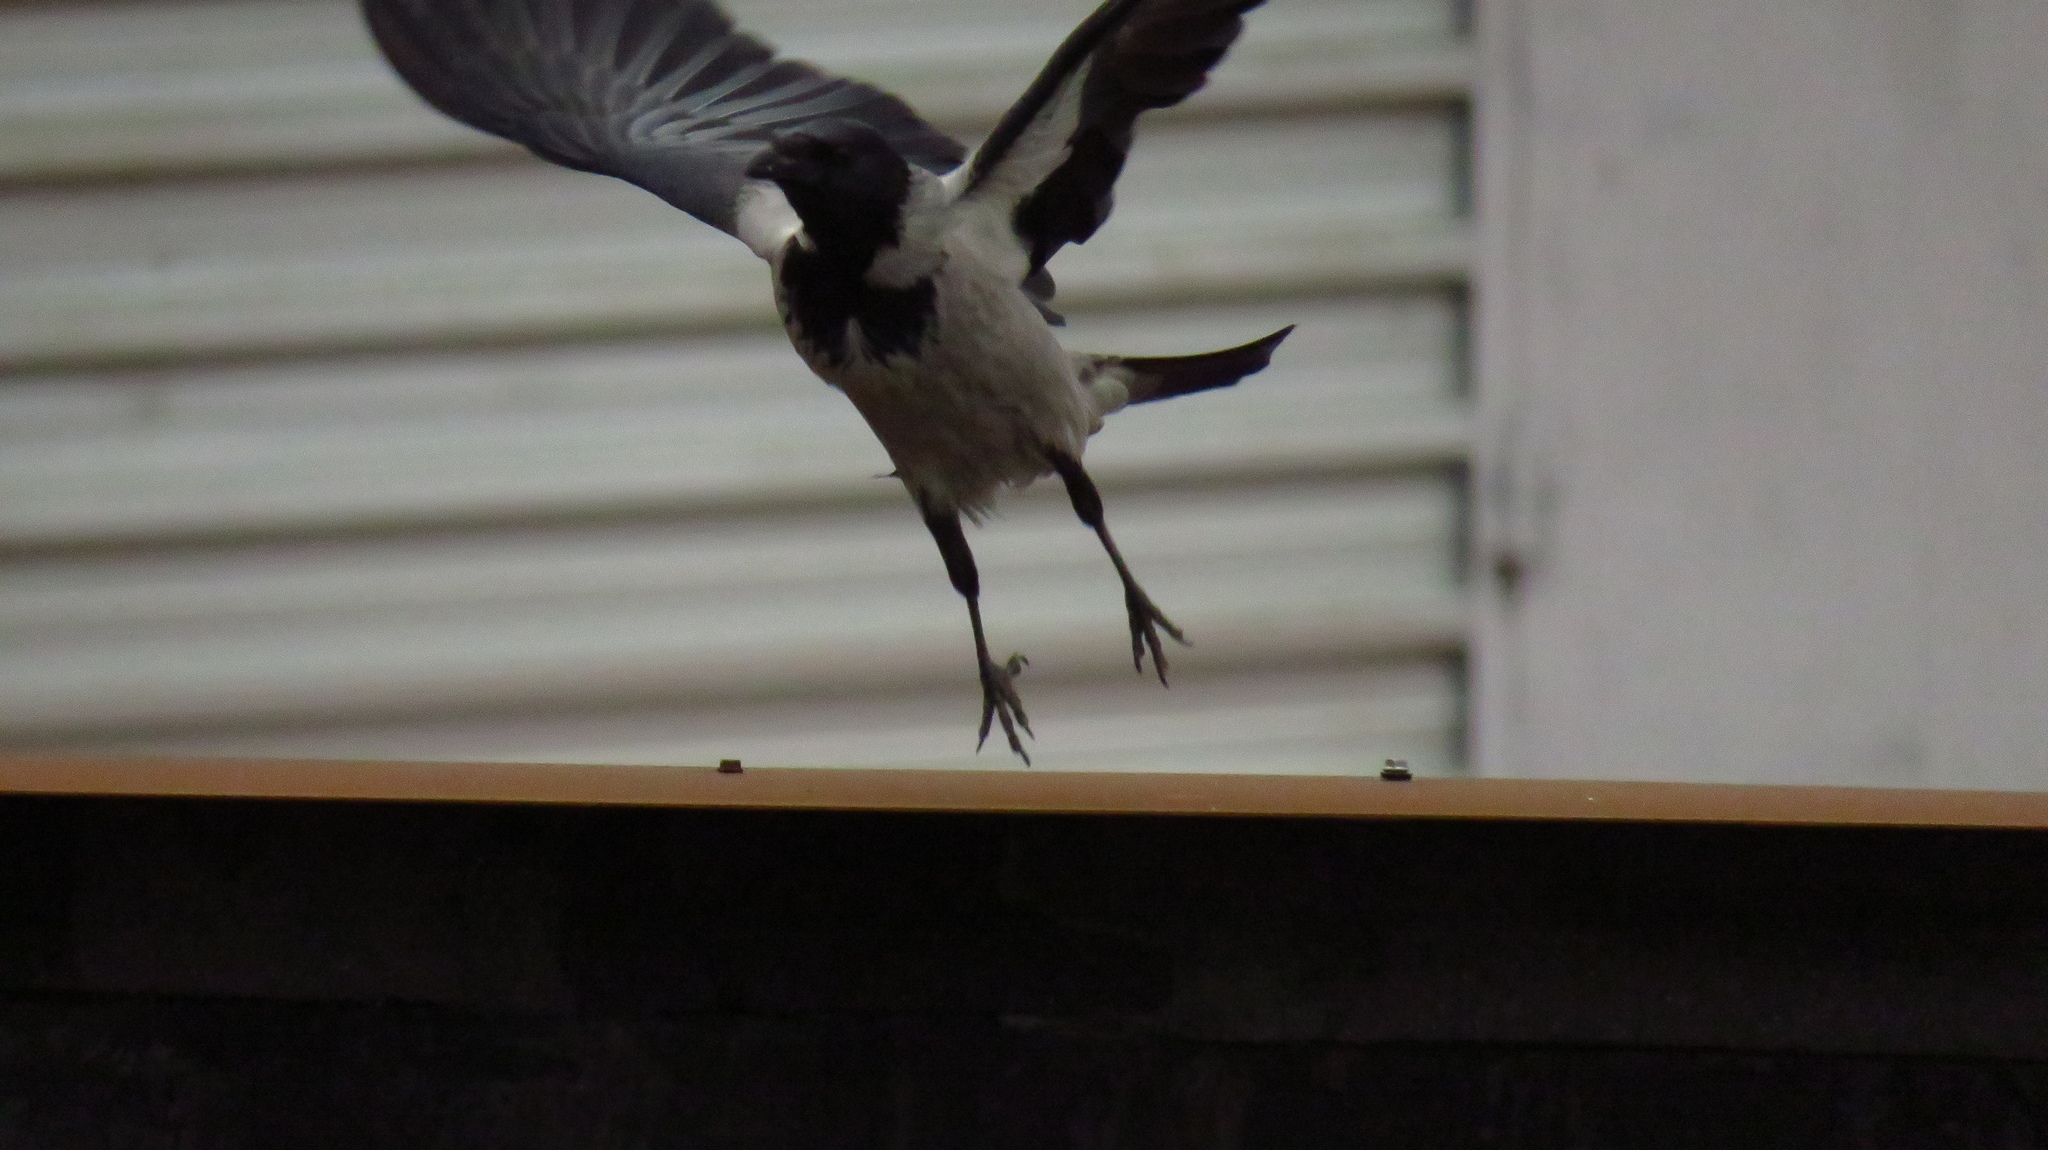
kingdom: Animalia
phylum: Chordata
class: Aves
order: Passeriformes
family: Corvidae
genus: Corvus
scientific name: Corvus cornix
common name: Hooded crow
